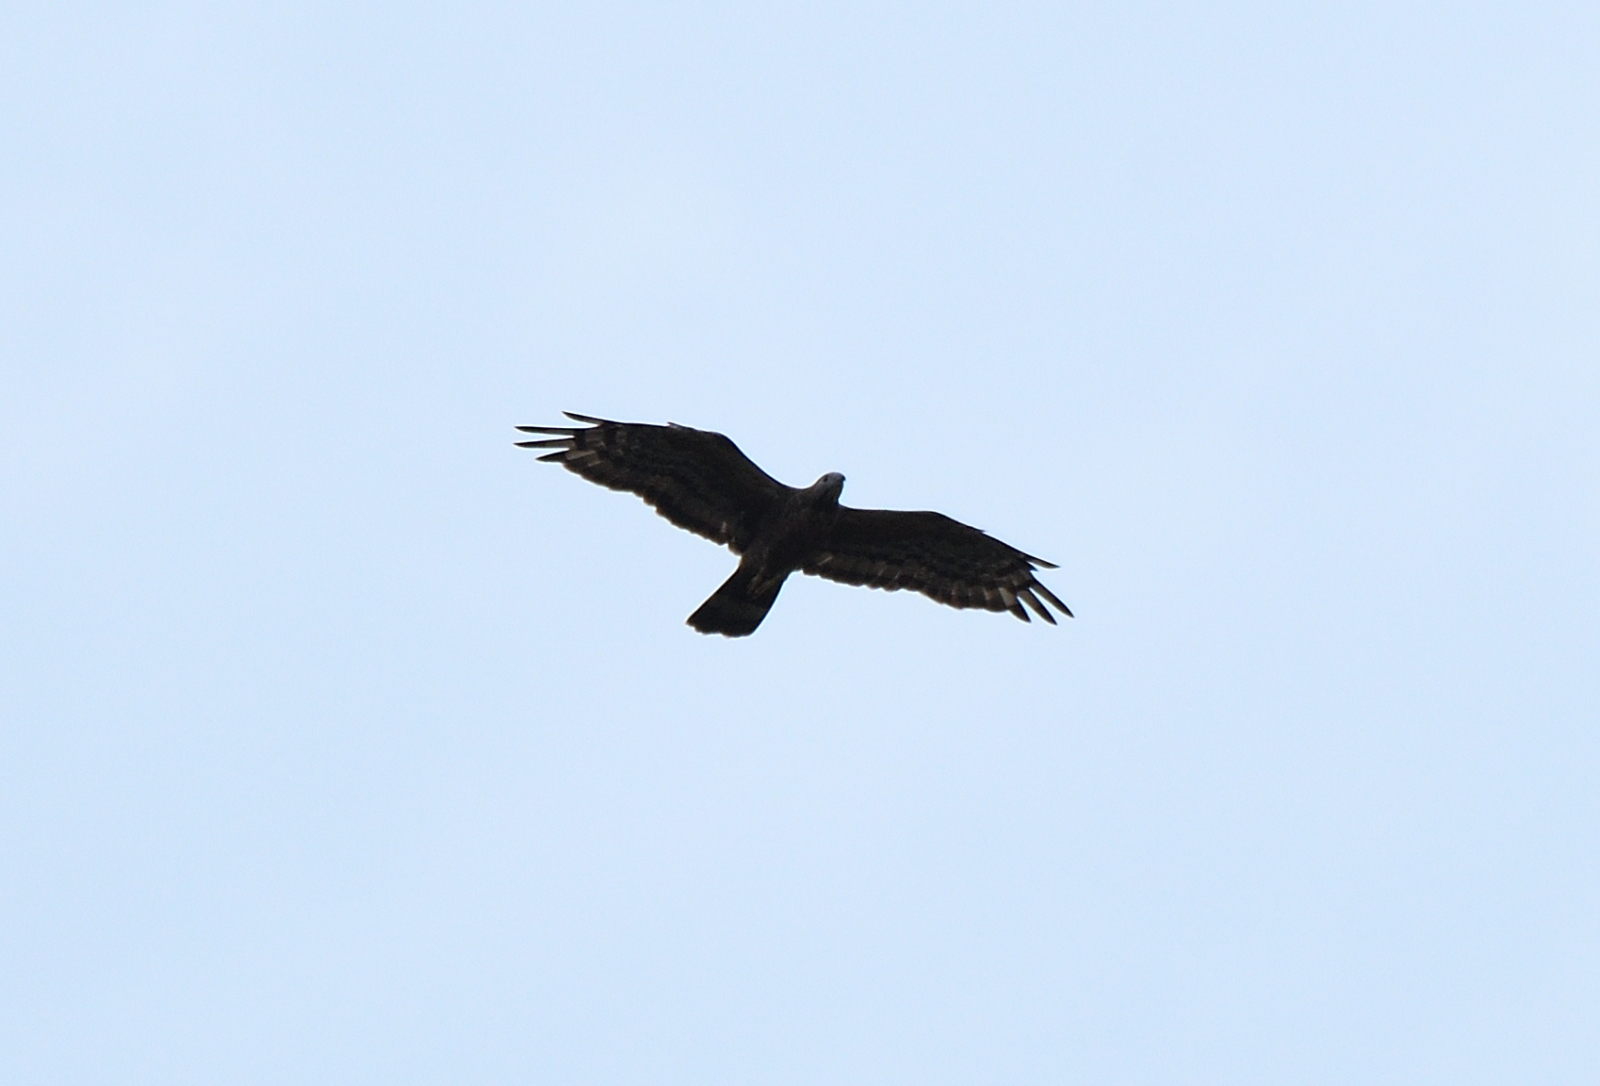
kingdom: Animalia
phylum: Chordata
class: Aves
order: Accipitriformes
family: Accipitridae
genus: Pernis
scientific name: Pernis ptilorhynchus
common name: Crested honey buzzard
